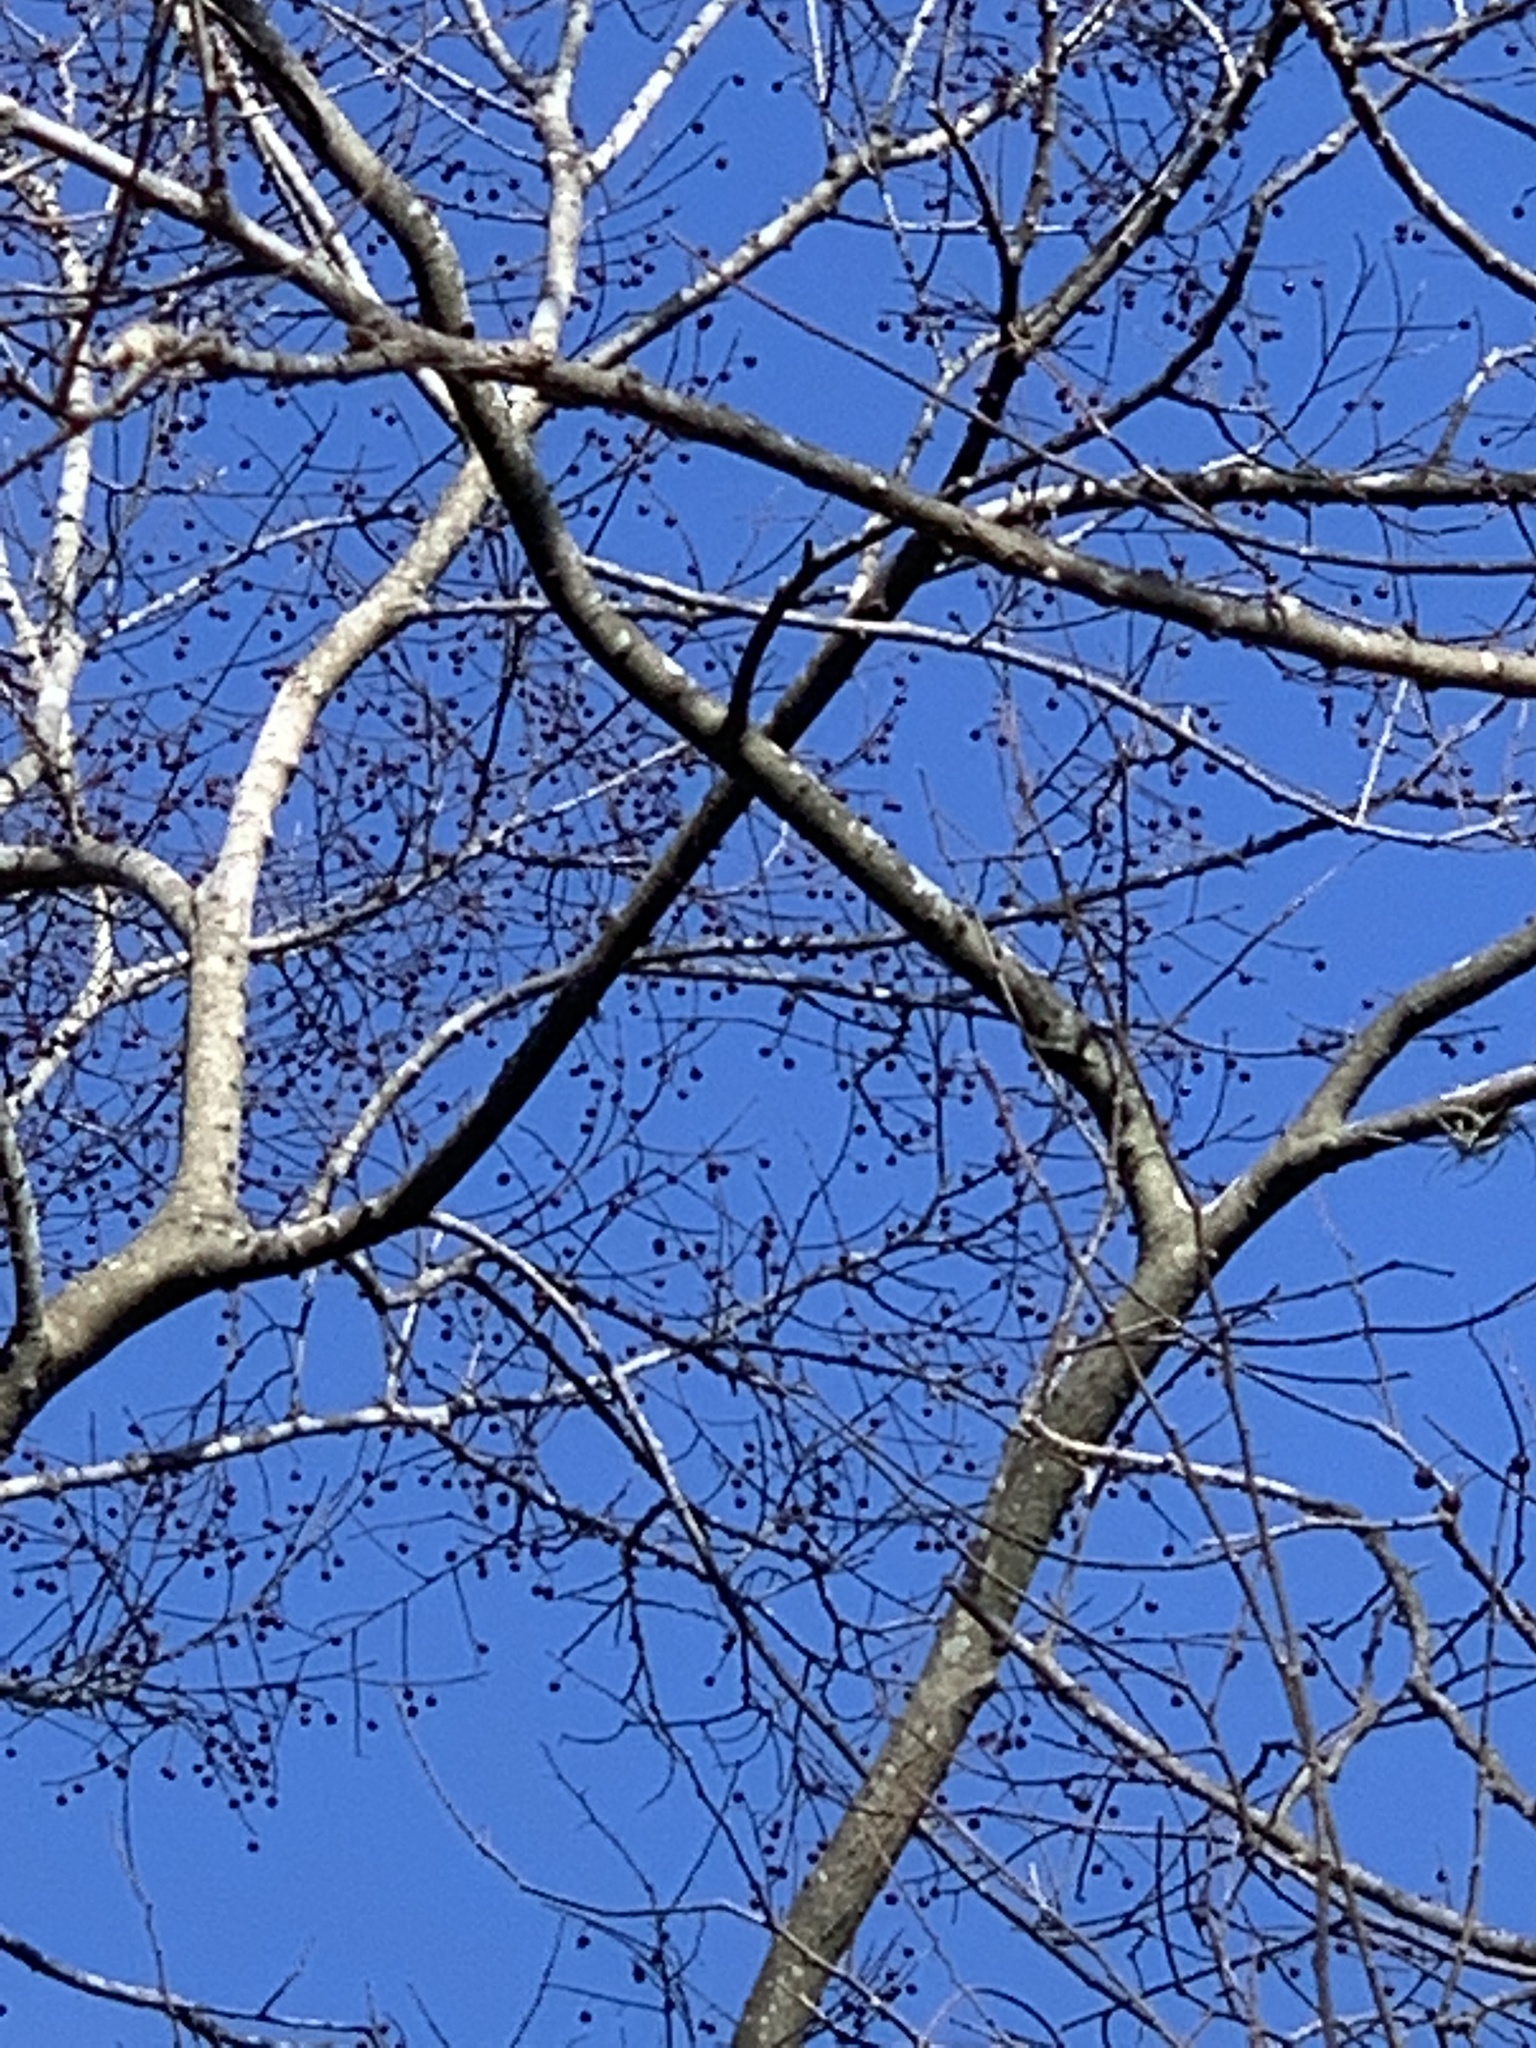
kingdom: Plantae
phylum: Tracheophyta
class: Magnoliopsida
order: Rosales
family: Cannabaceae
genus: Celtis
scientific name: Celtis laevigata
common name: Sugarberry
